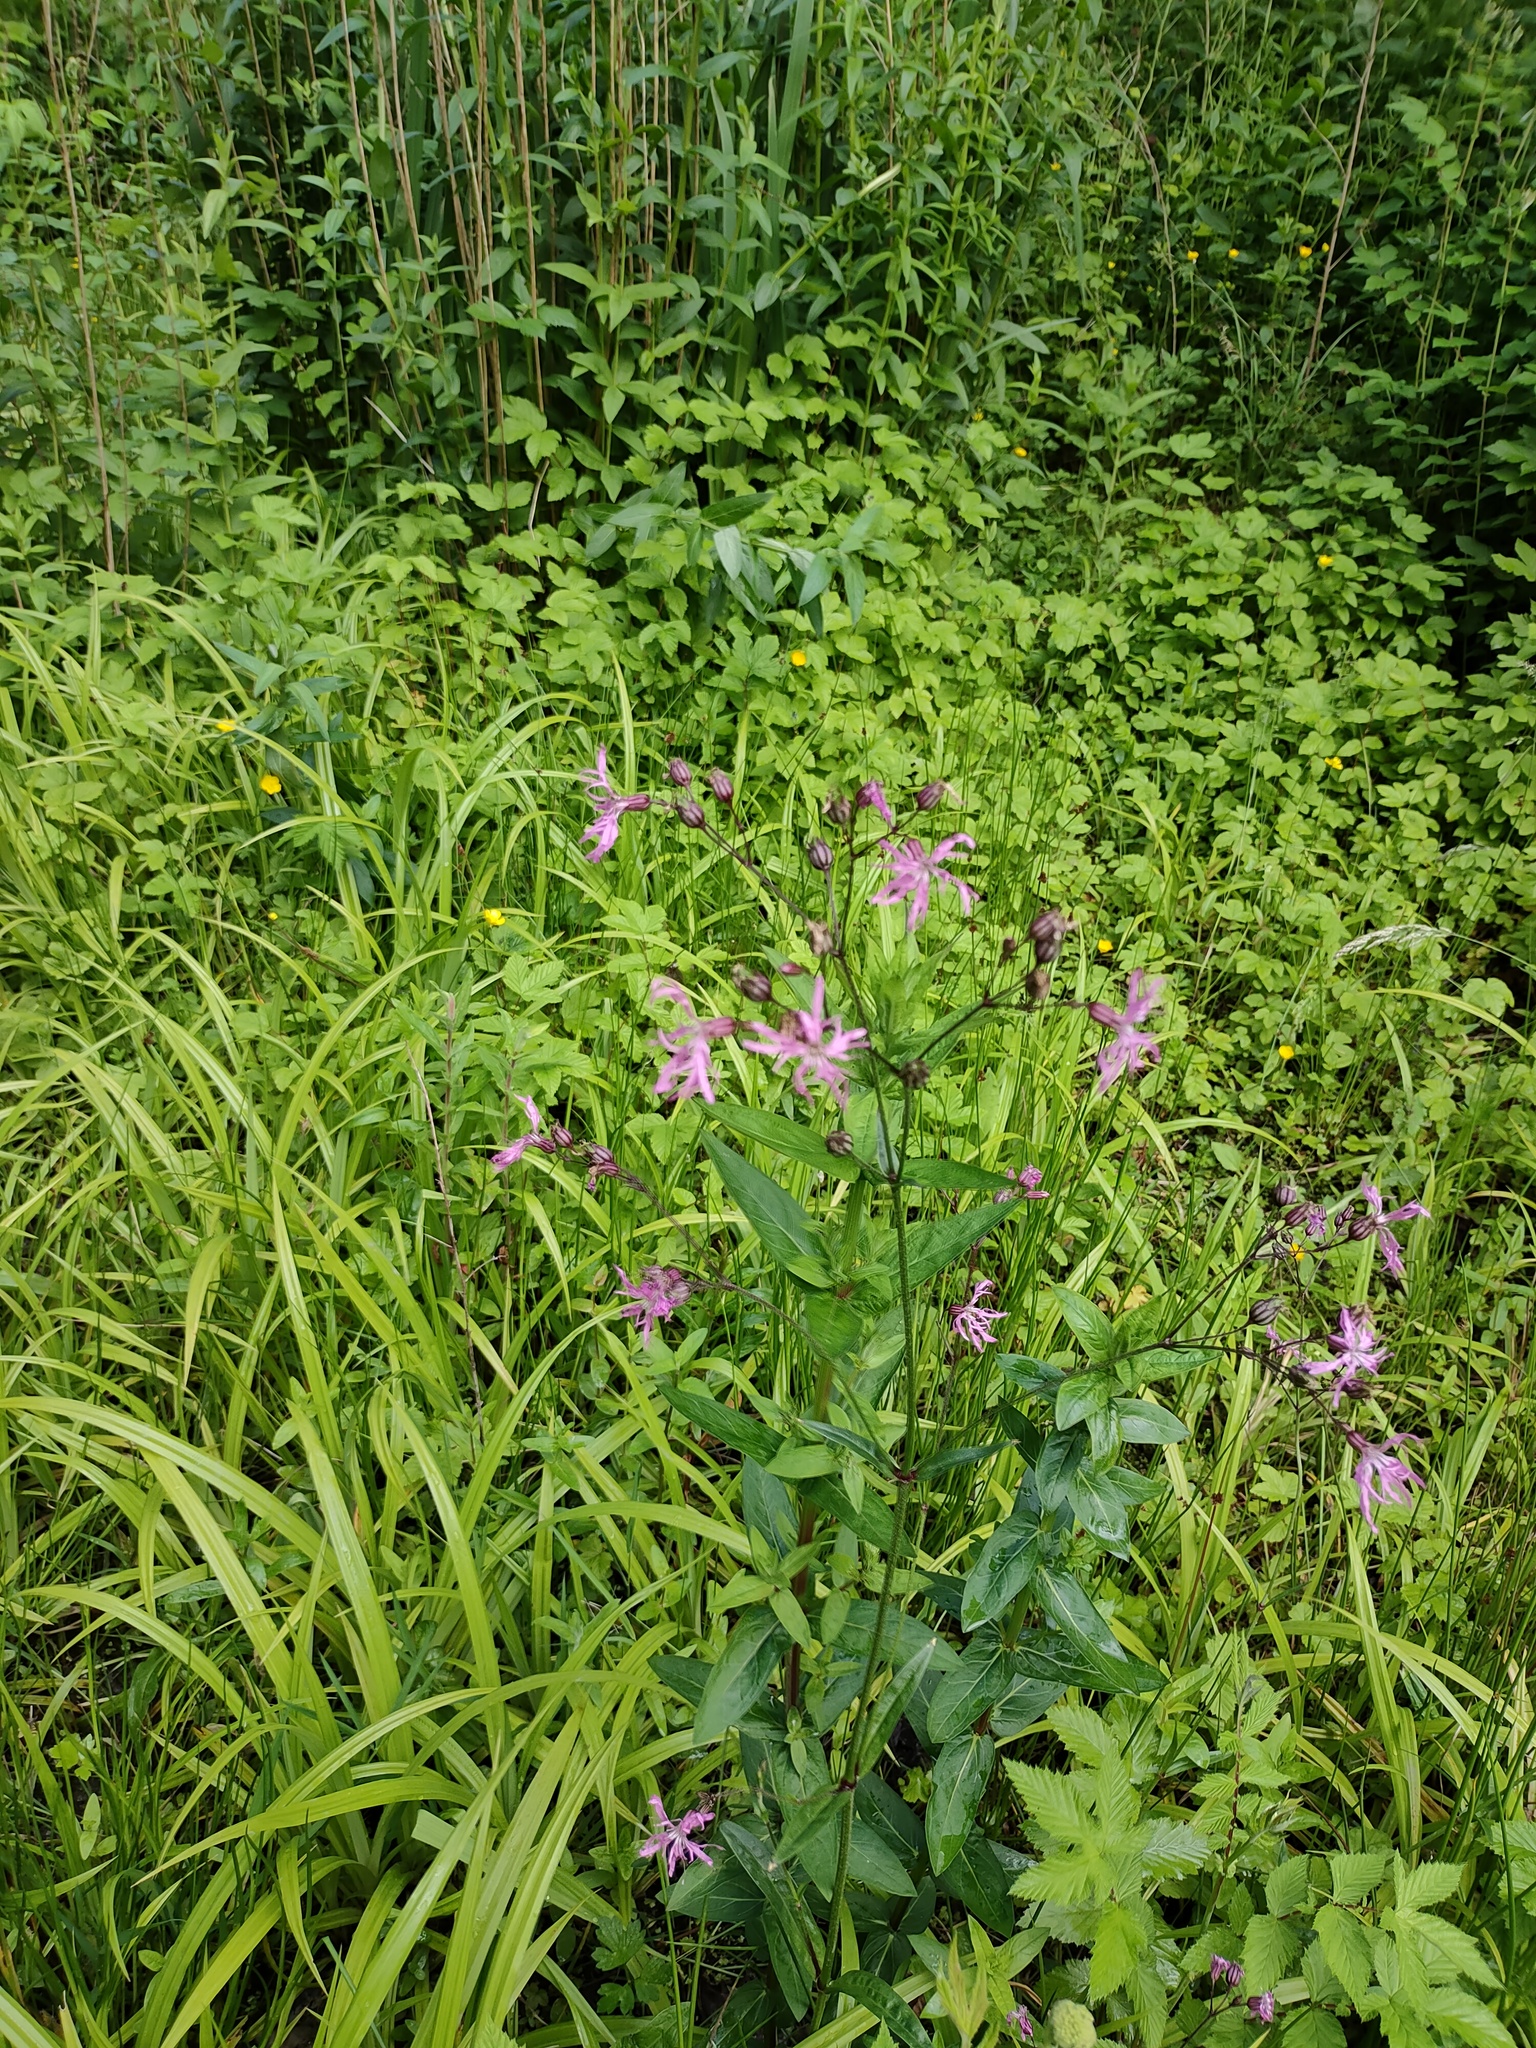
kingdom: Plantae
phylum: Tracheophyta
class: Magnoliopsida
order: Caryophyllales
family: Caryophyllaceae
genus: Silene
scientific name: Silene flos-cuculi
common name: Ragged-robin
